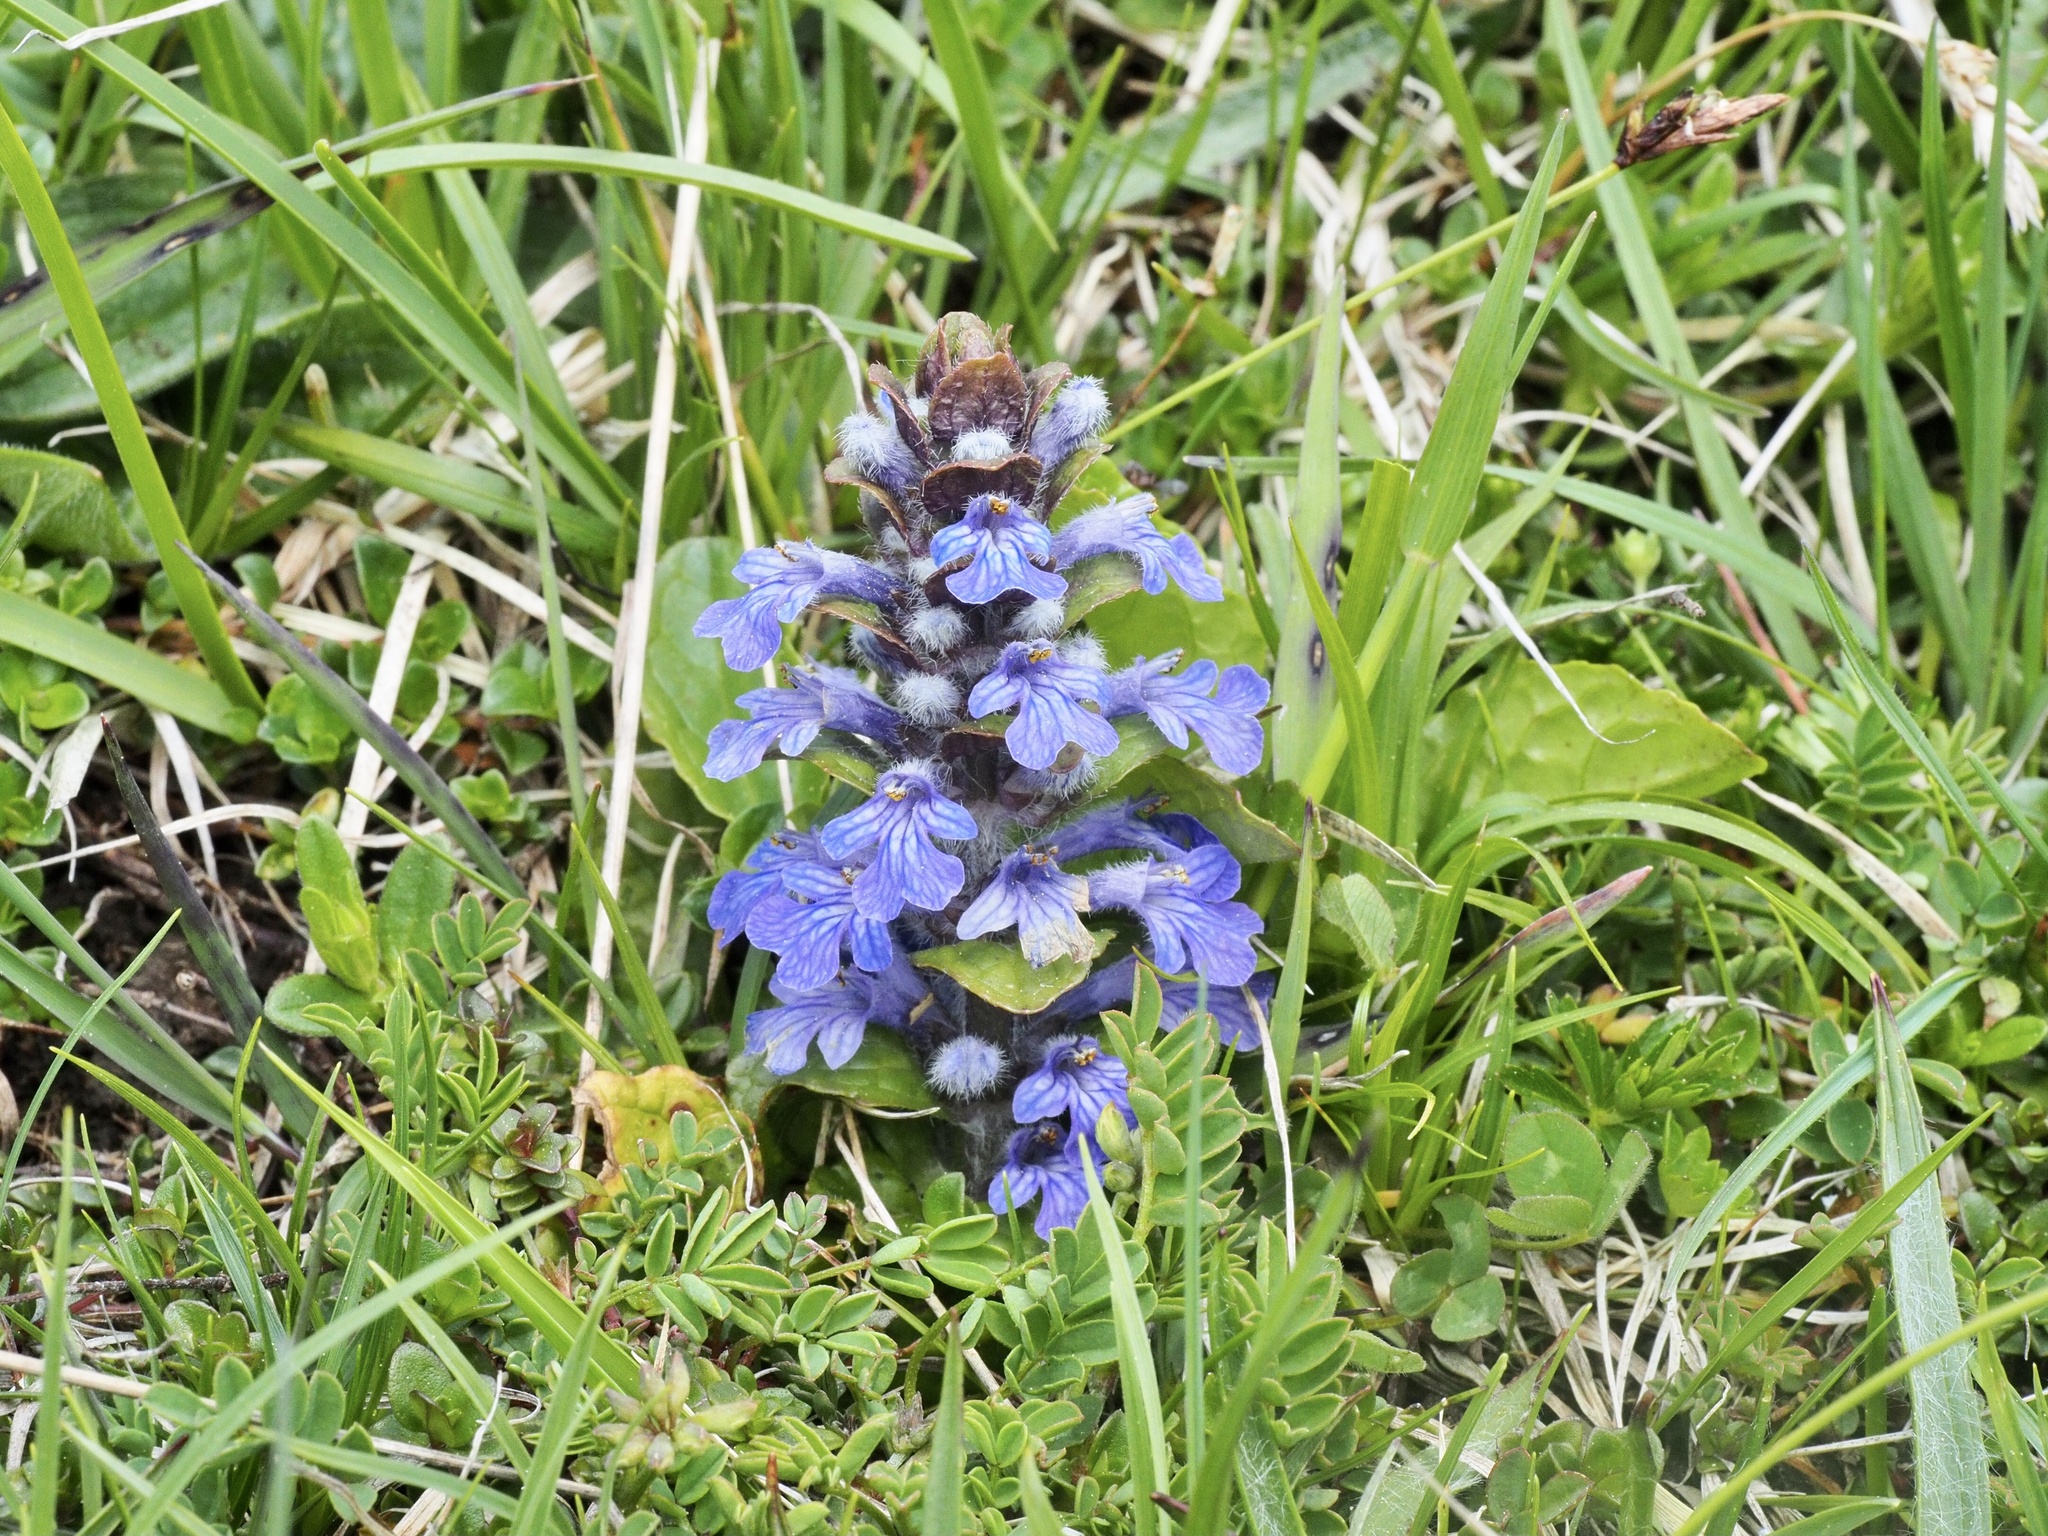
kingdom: Plantae
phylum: Tracheophyta
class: Magnoliopsida
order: Lamiales
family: Lamiaceae
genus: Ajuga
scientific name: Ajuga reptans
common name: Bugle
